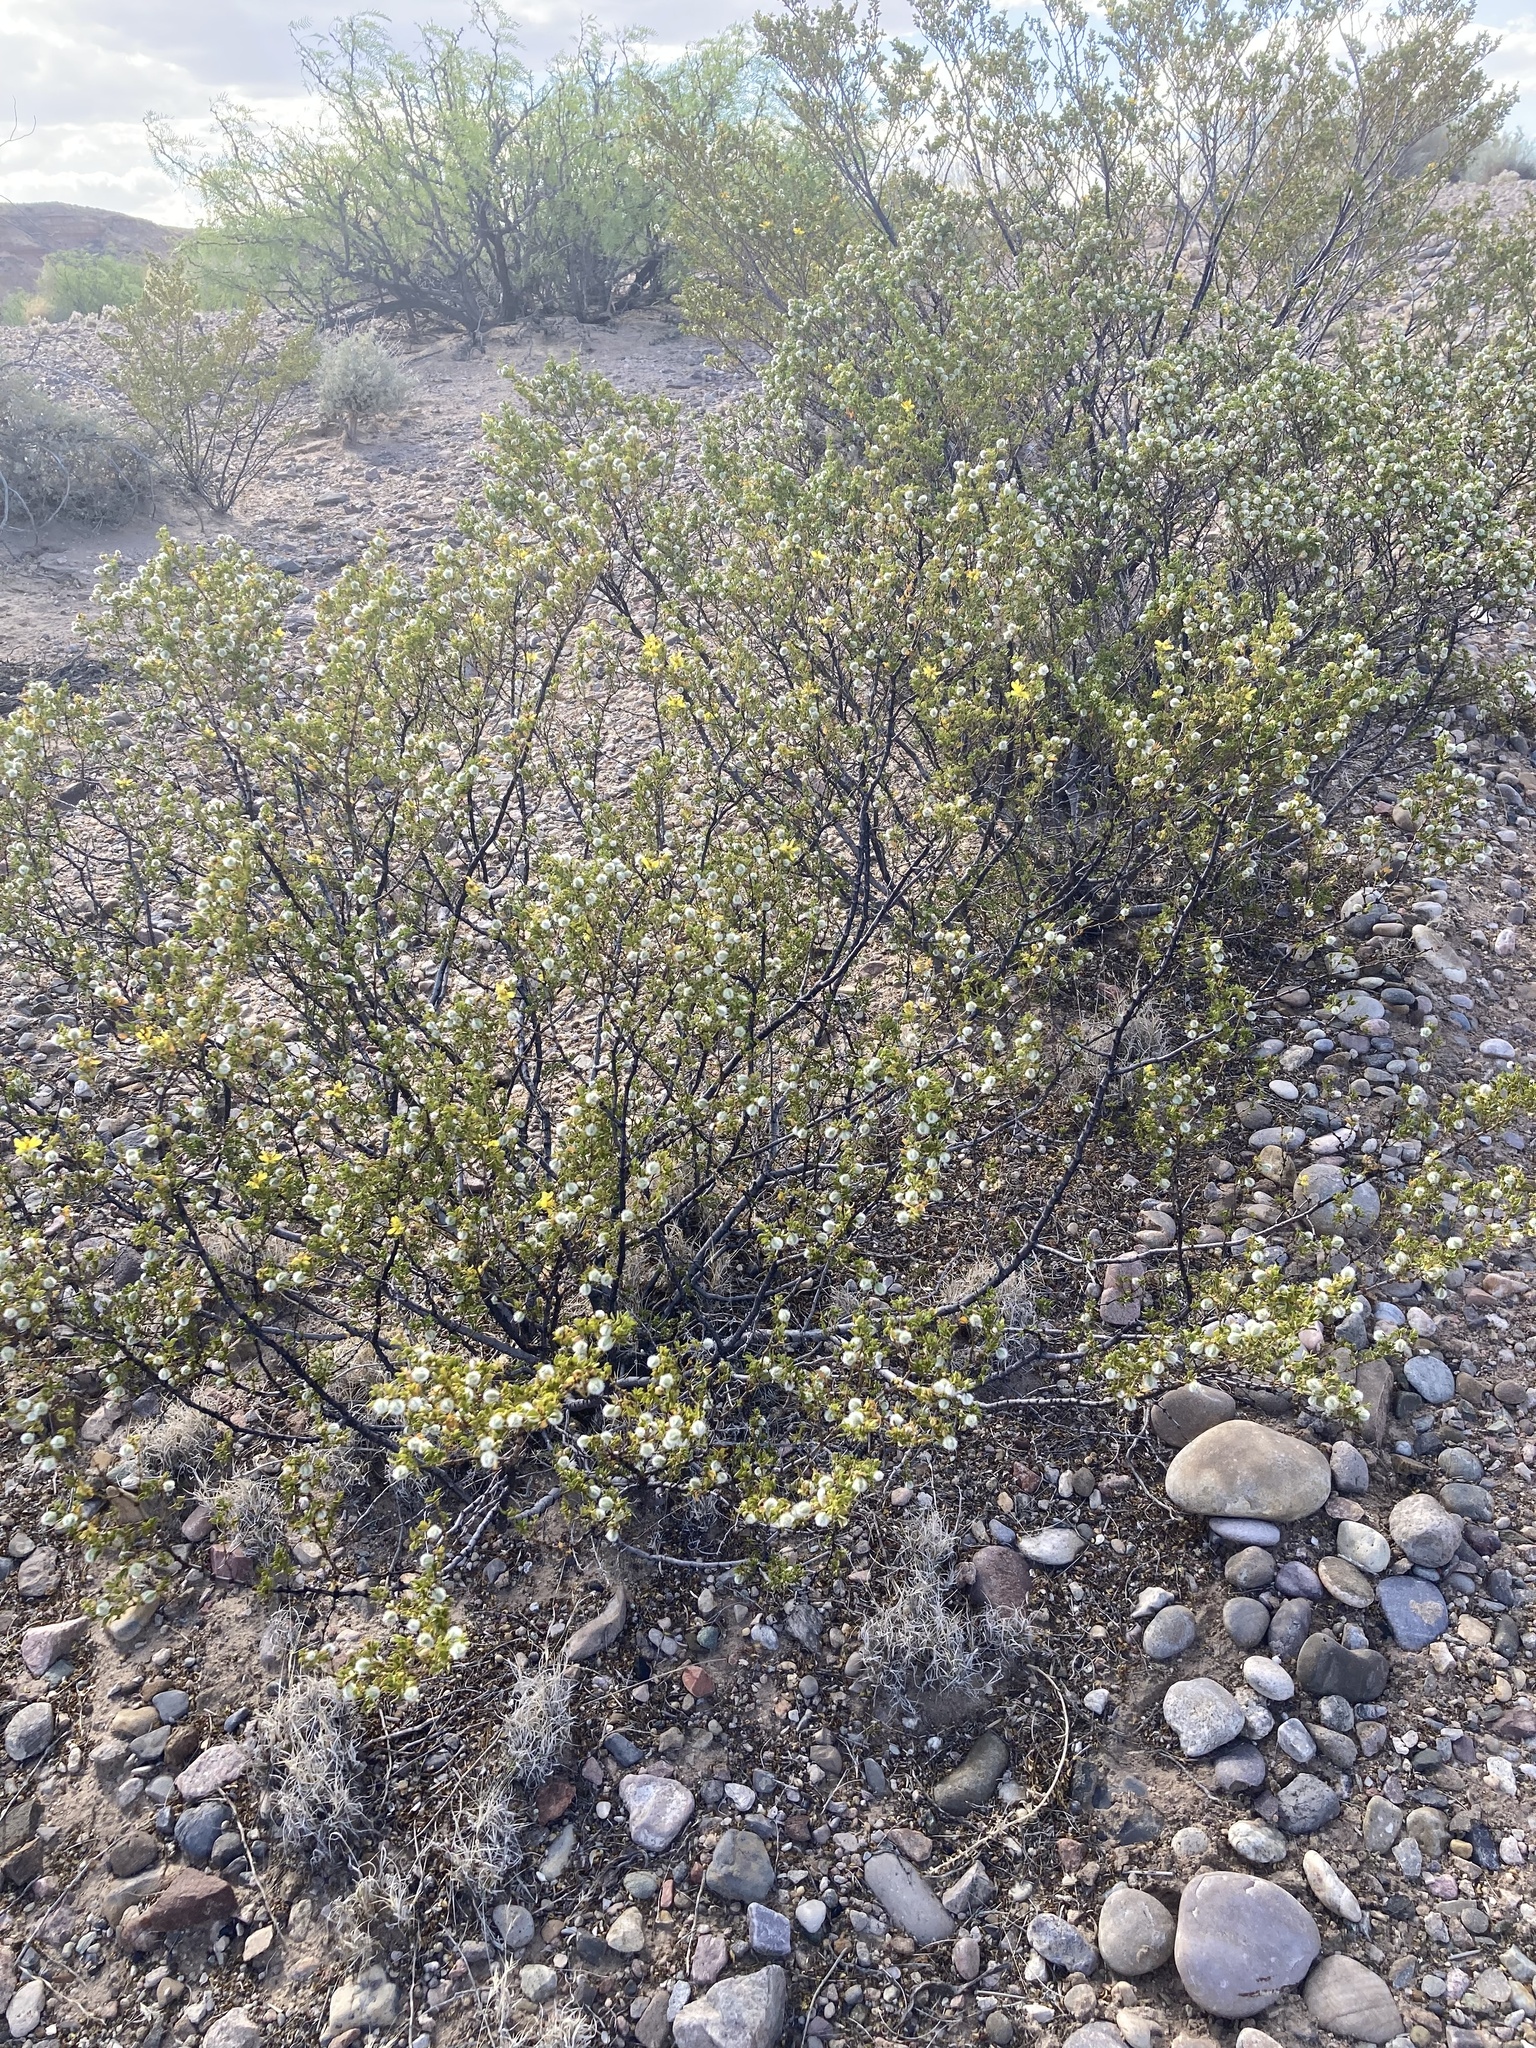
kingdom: Plantae
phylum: Tracheophyta
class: Magnoliopsida
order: Zygophyllales
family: Zygophyllaceae
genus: Larrea
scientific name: Larrea tridentata
